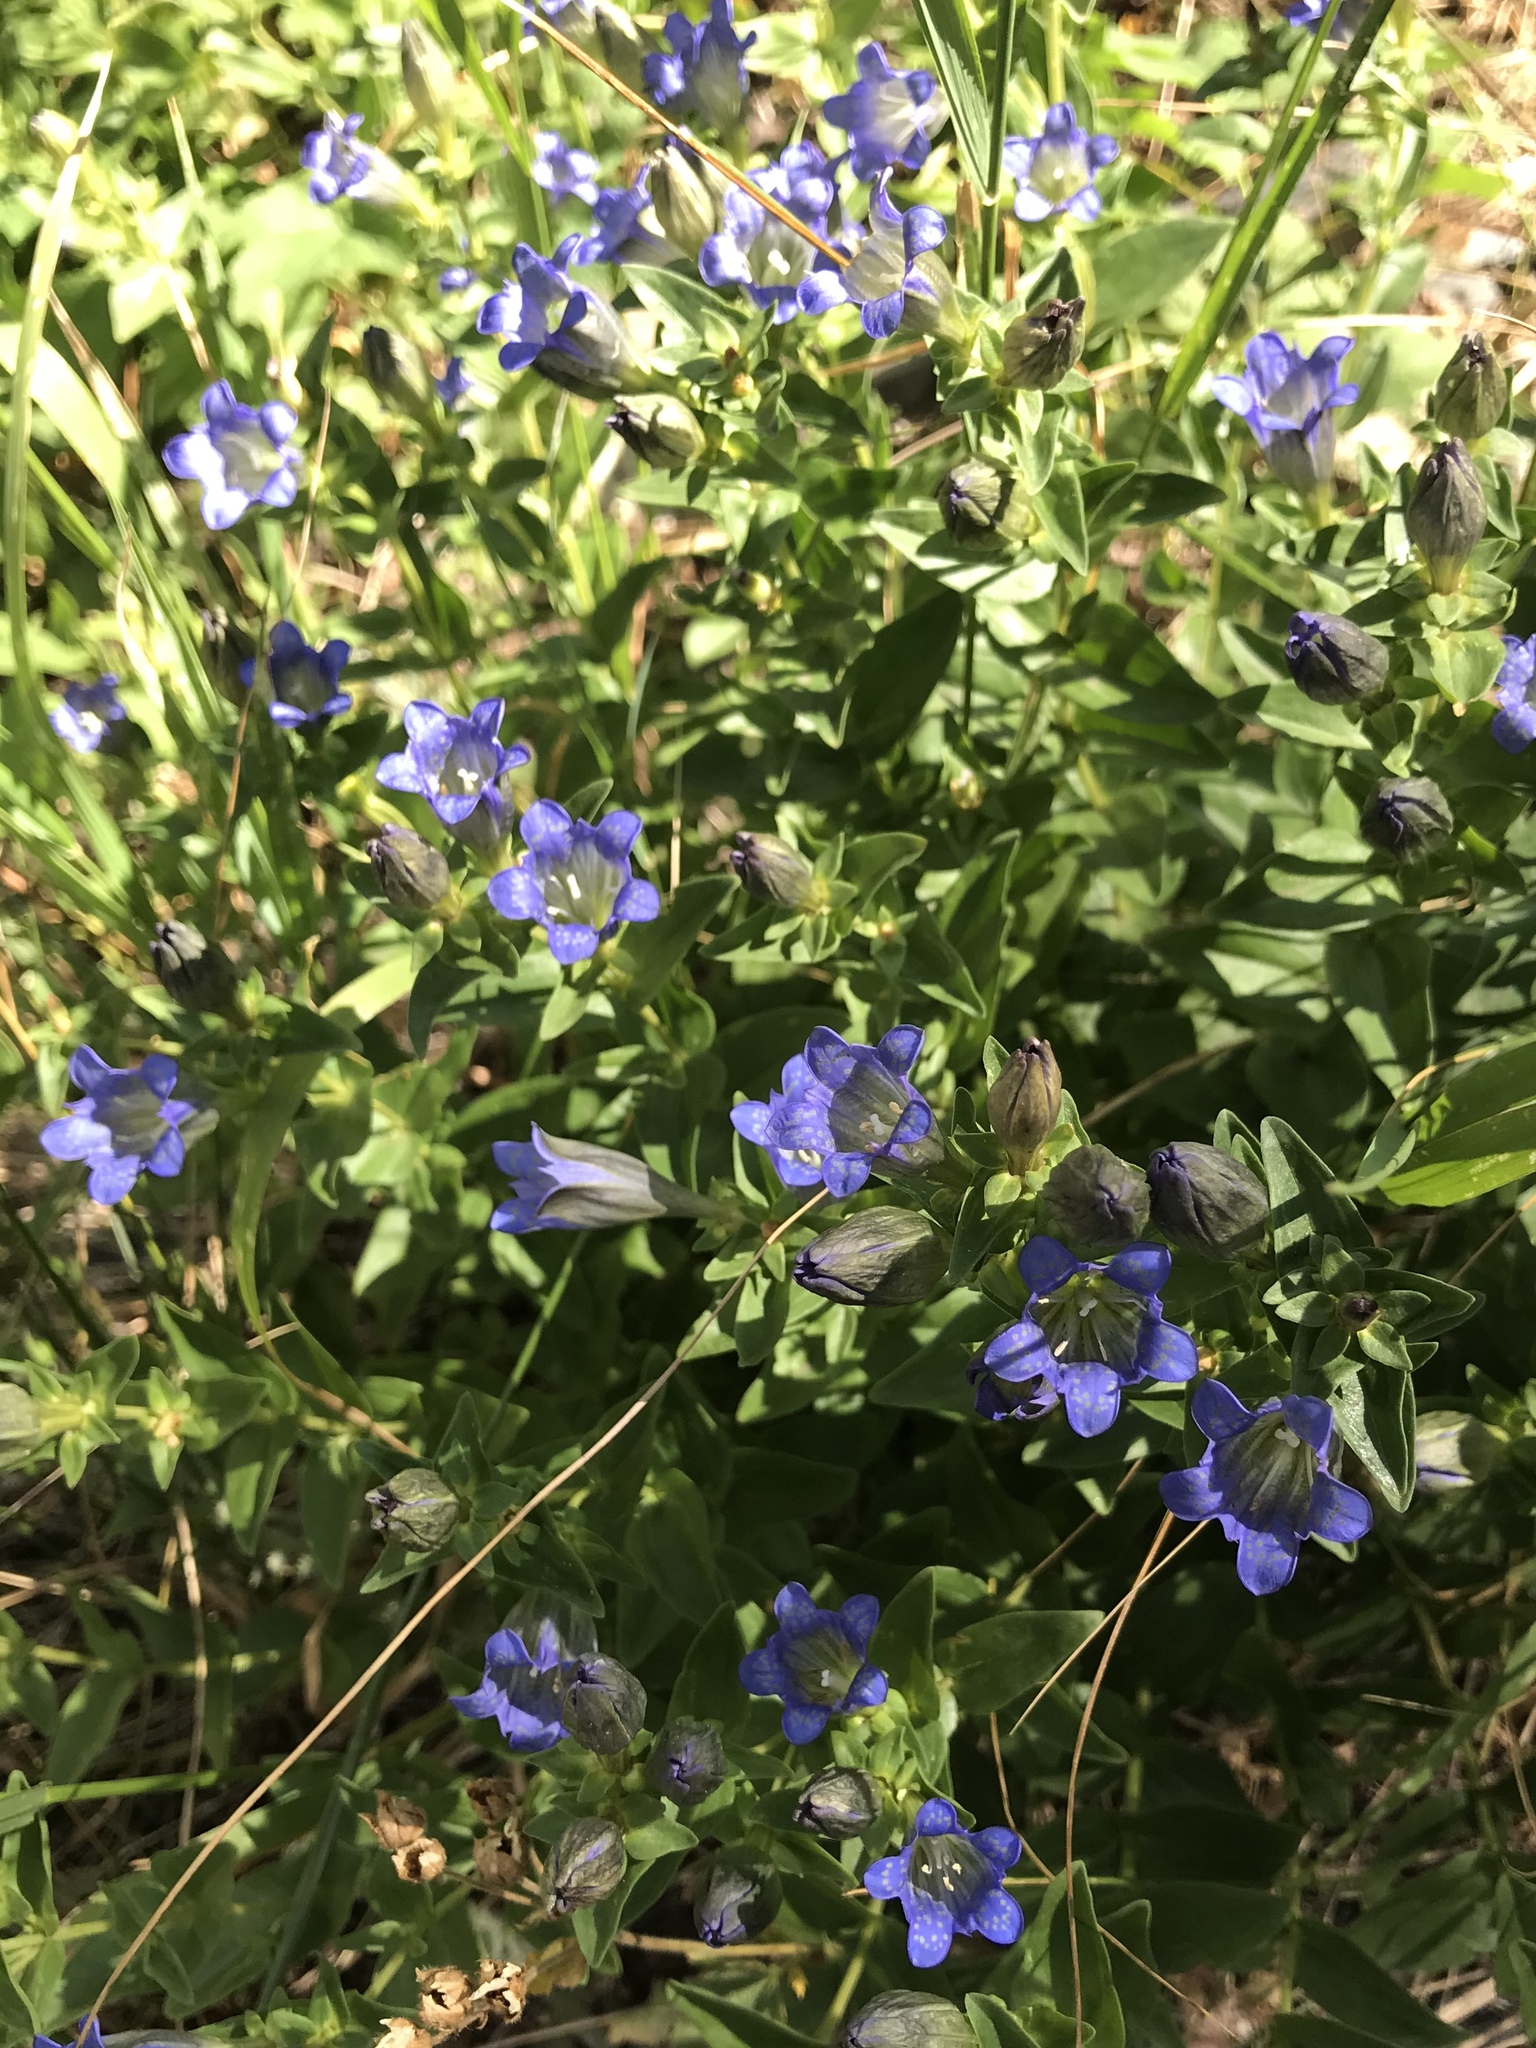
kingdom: Plantae
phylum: Tracheophyta
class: Magnoliopsida
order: Gentianales
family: Gentianaceae
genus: Gentiana
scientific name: Gentiana calycosa
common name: Rainier pleated gentian
